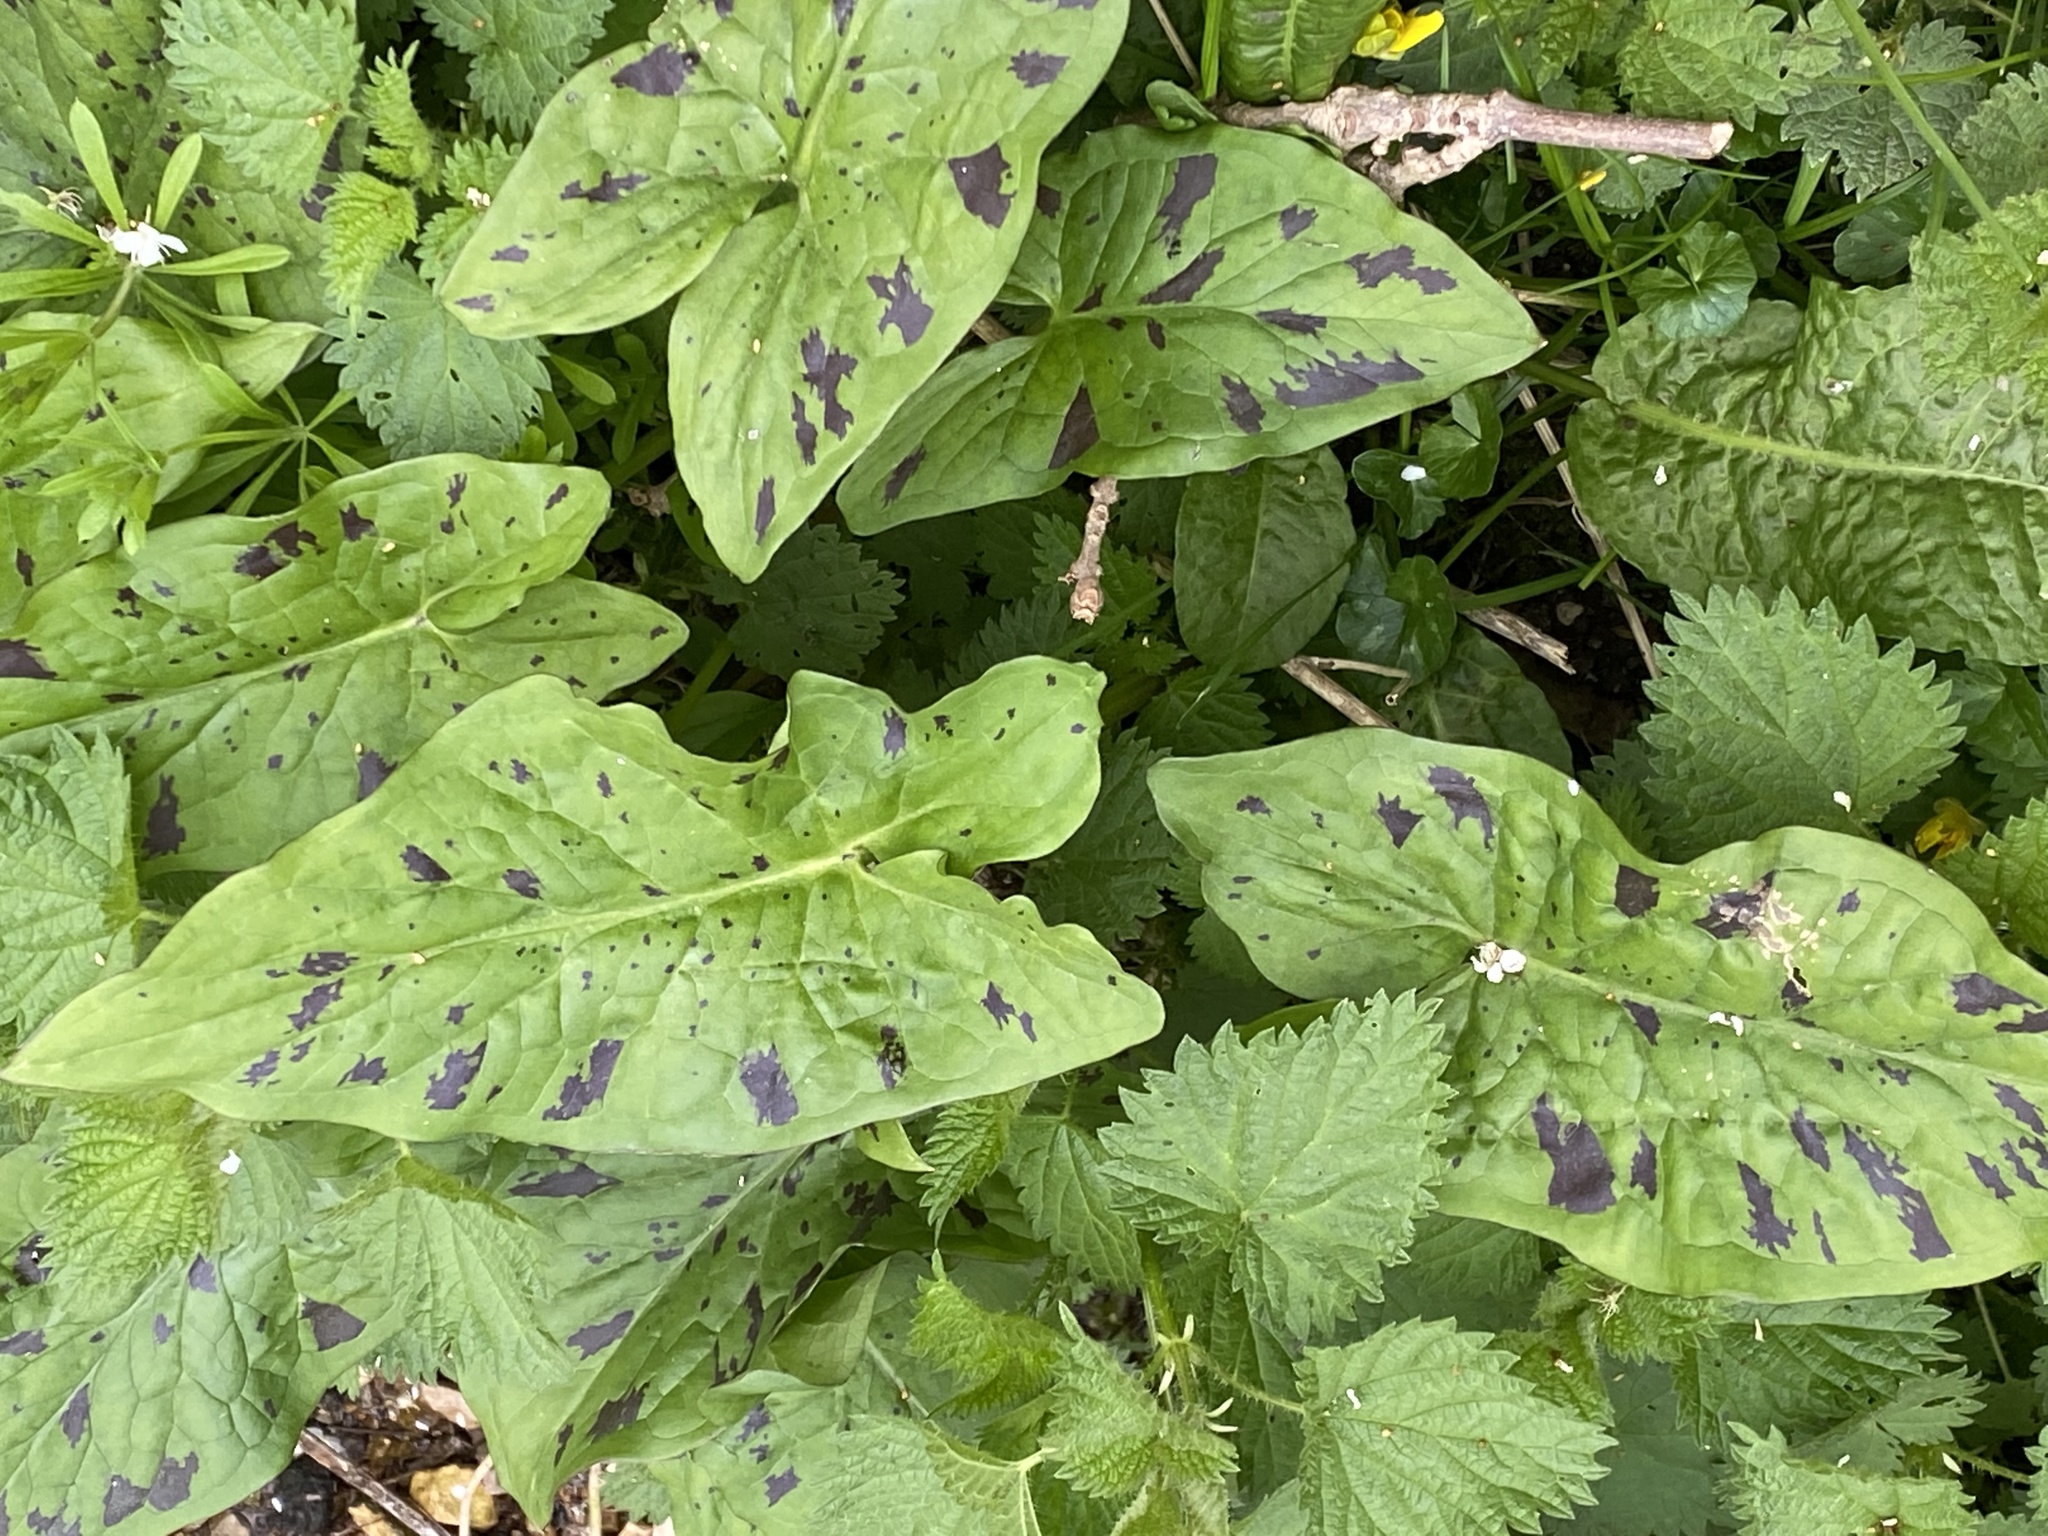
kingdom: Plantae
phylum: Tracheophyta
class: Liliopsida
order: Alismatales
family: Araceae
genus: Arum
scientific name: Arum maculatum
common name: Lords-and-ladies
